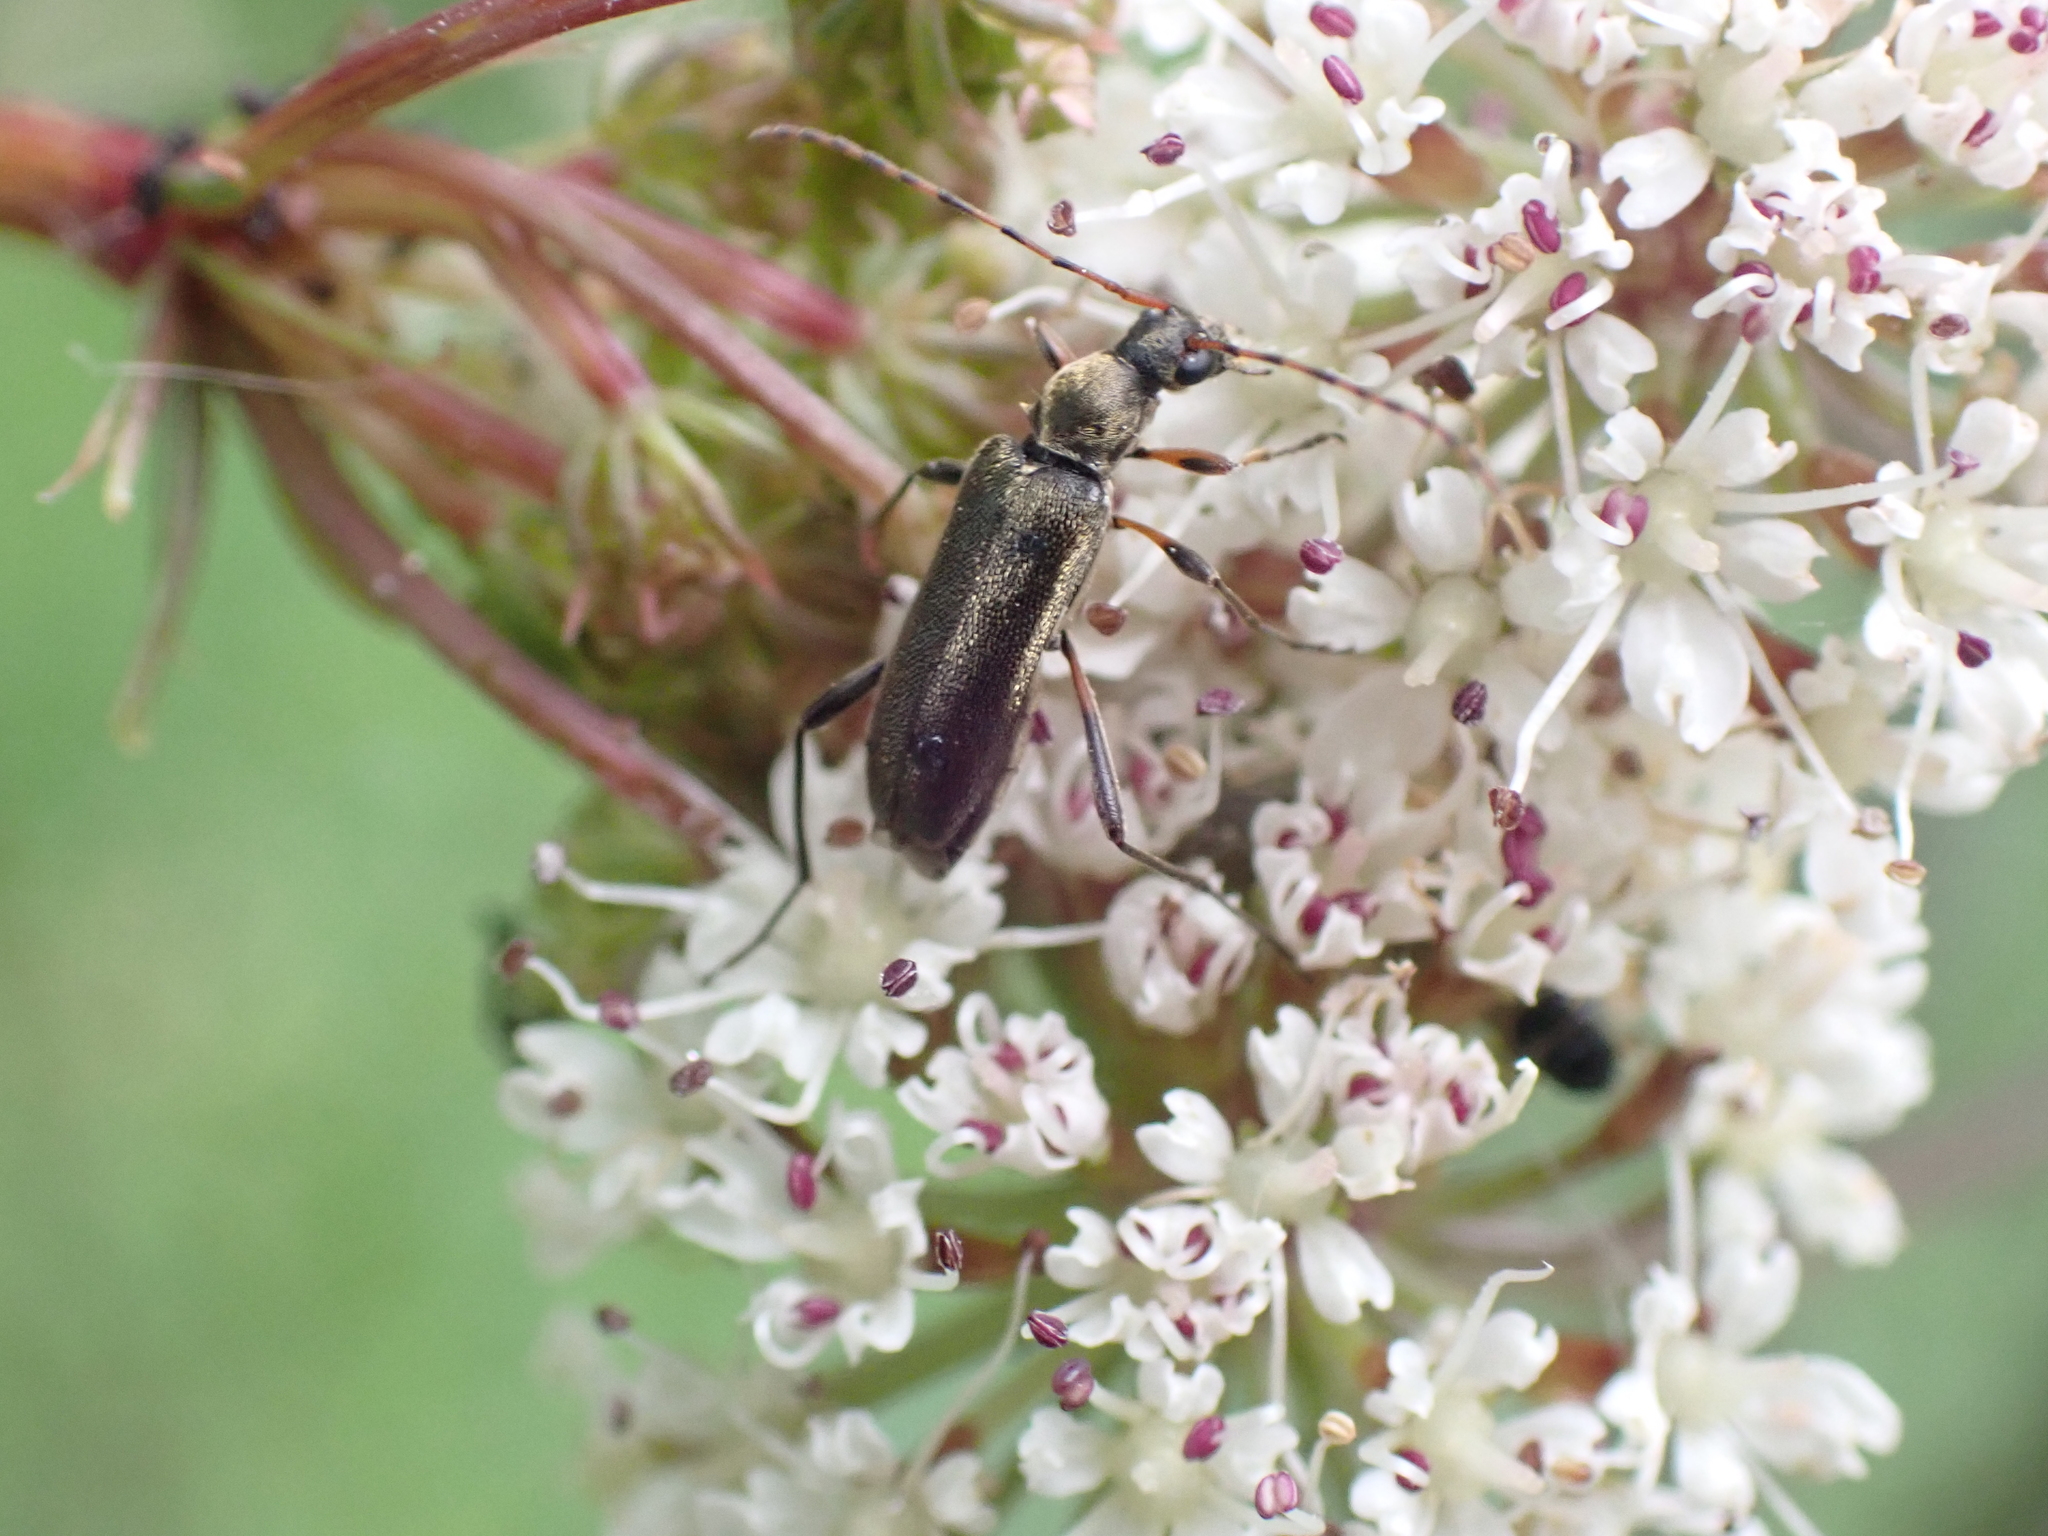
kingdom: Animalia
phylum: Arthropoda
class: Insecta
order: Coleoptera
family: Cerambycidae
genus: Grammoptera
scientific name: Grammoptera ruficornis
